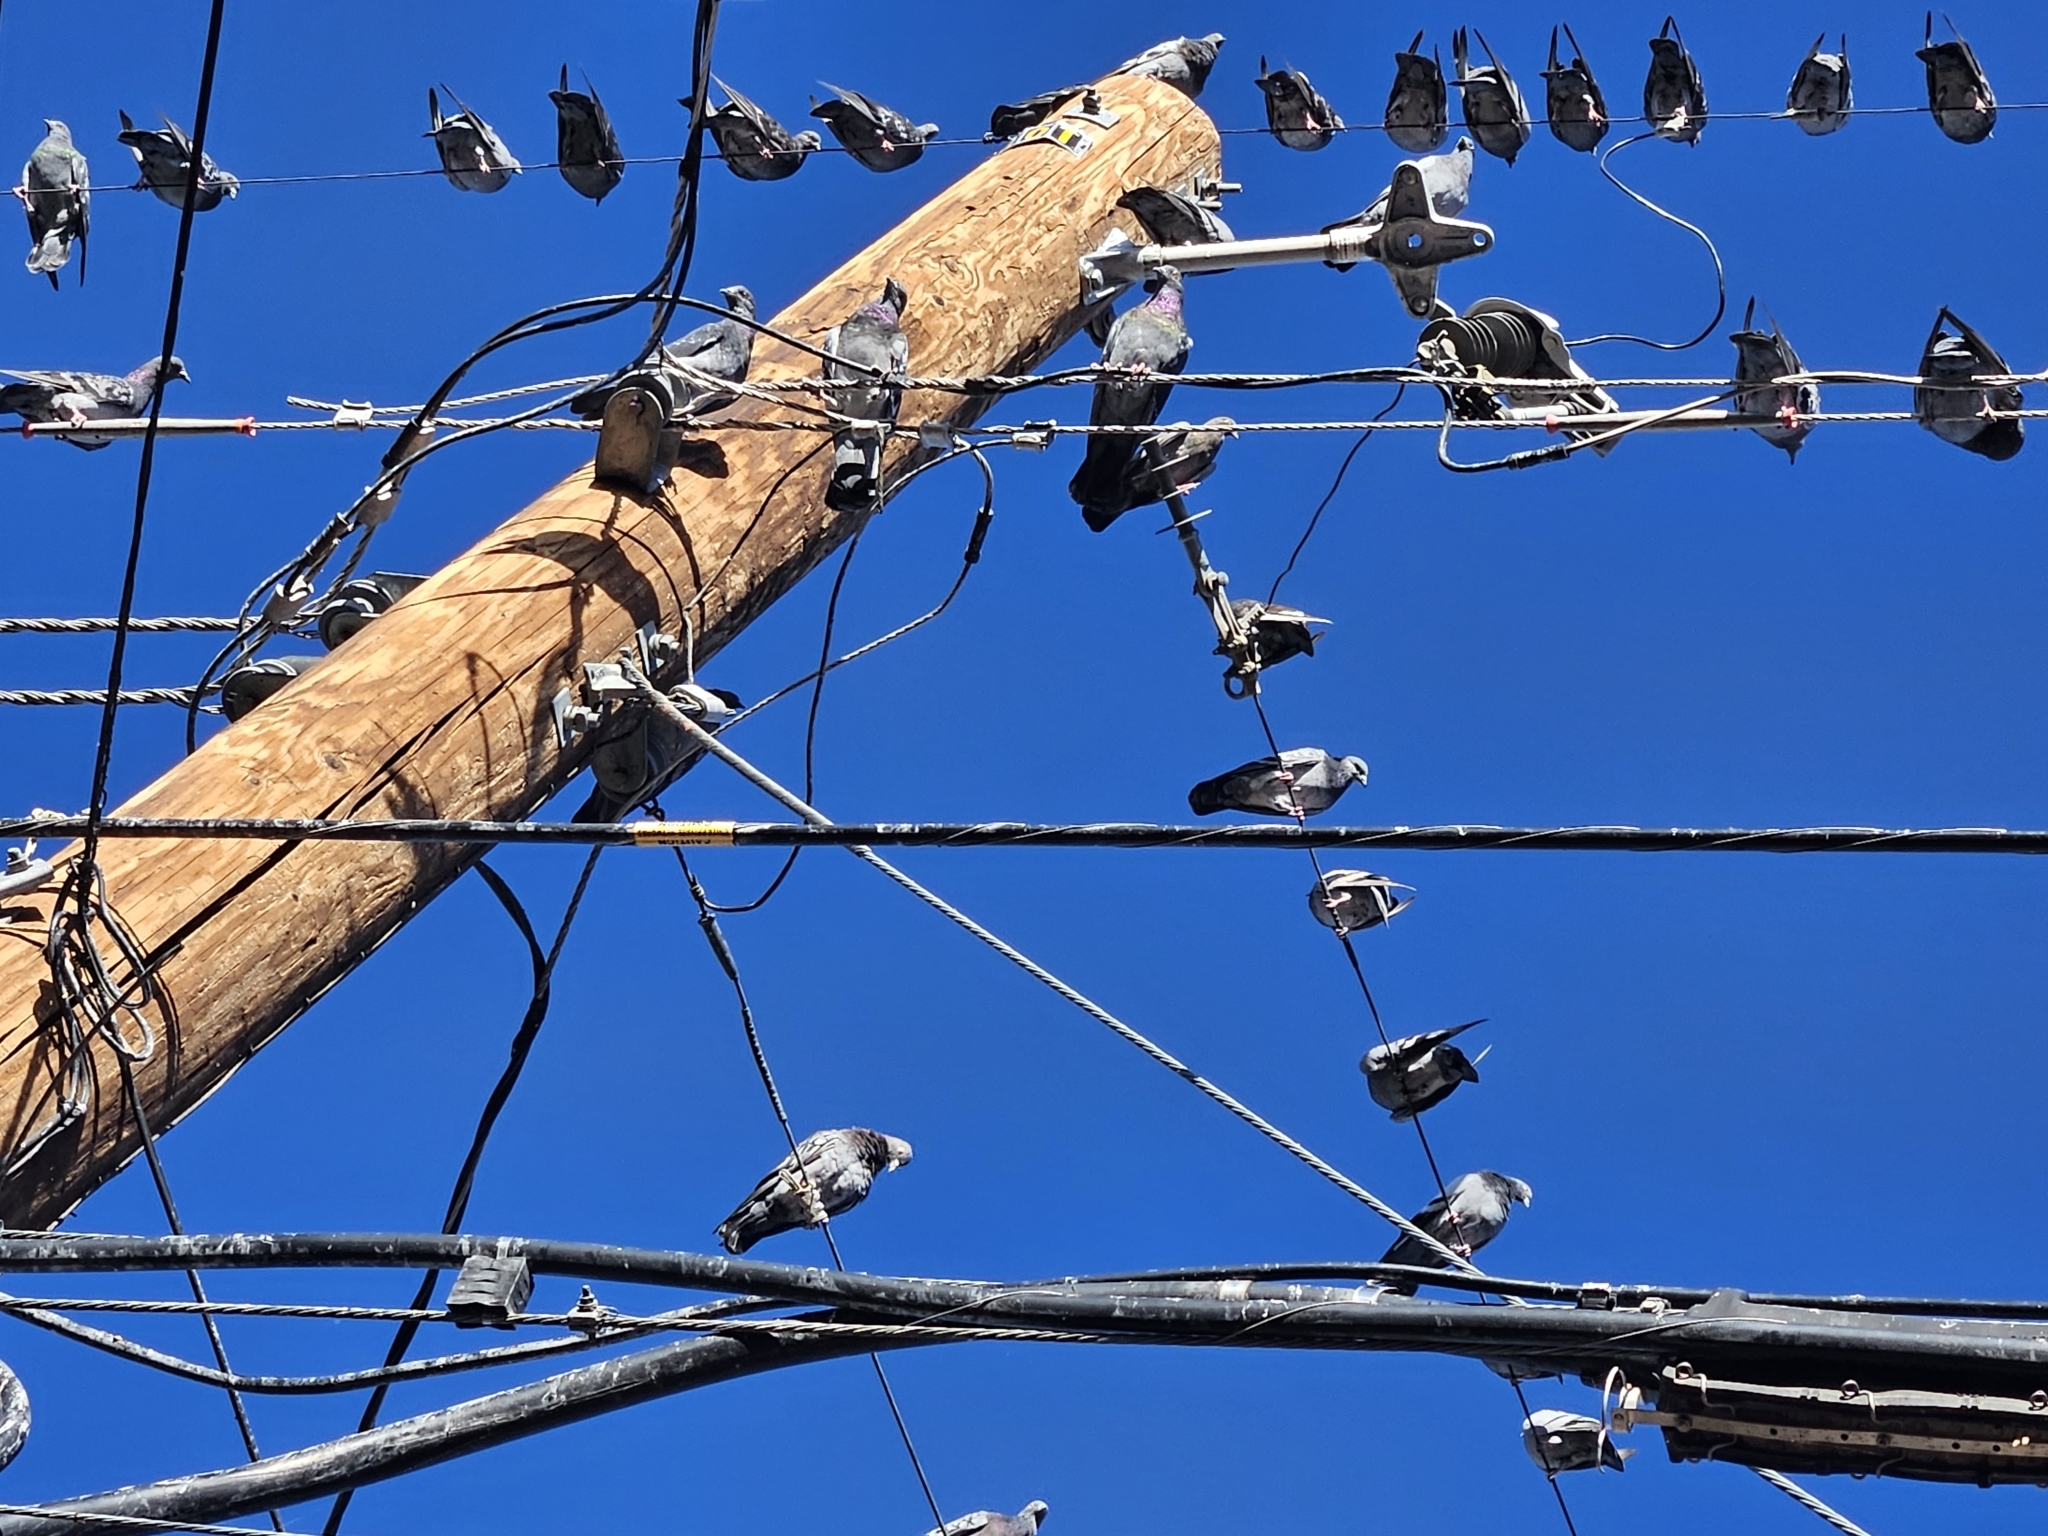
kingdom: Animalia
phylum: Chordata
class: Aves
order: Columbiformes
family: Columbidae
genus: Columba
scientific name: Columba livia
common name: Rock pigeon
